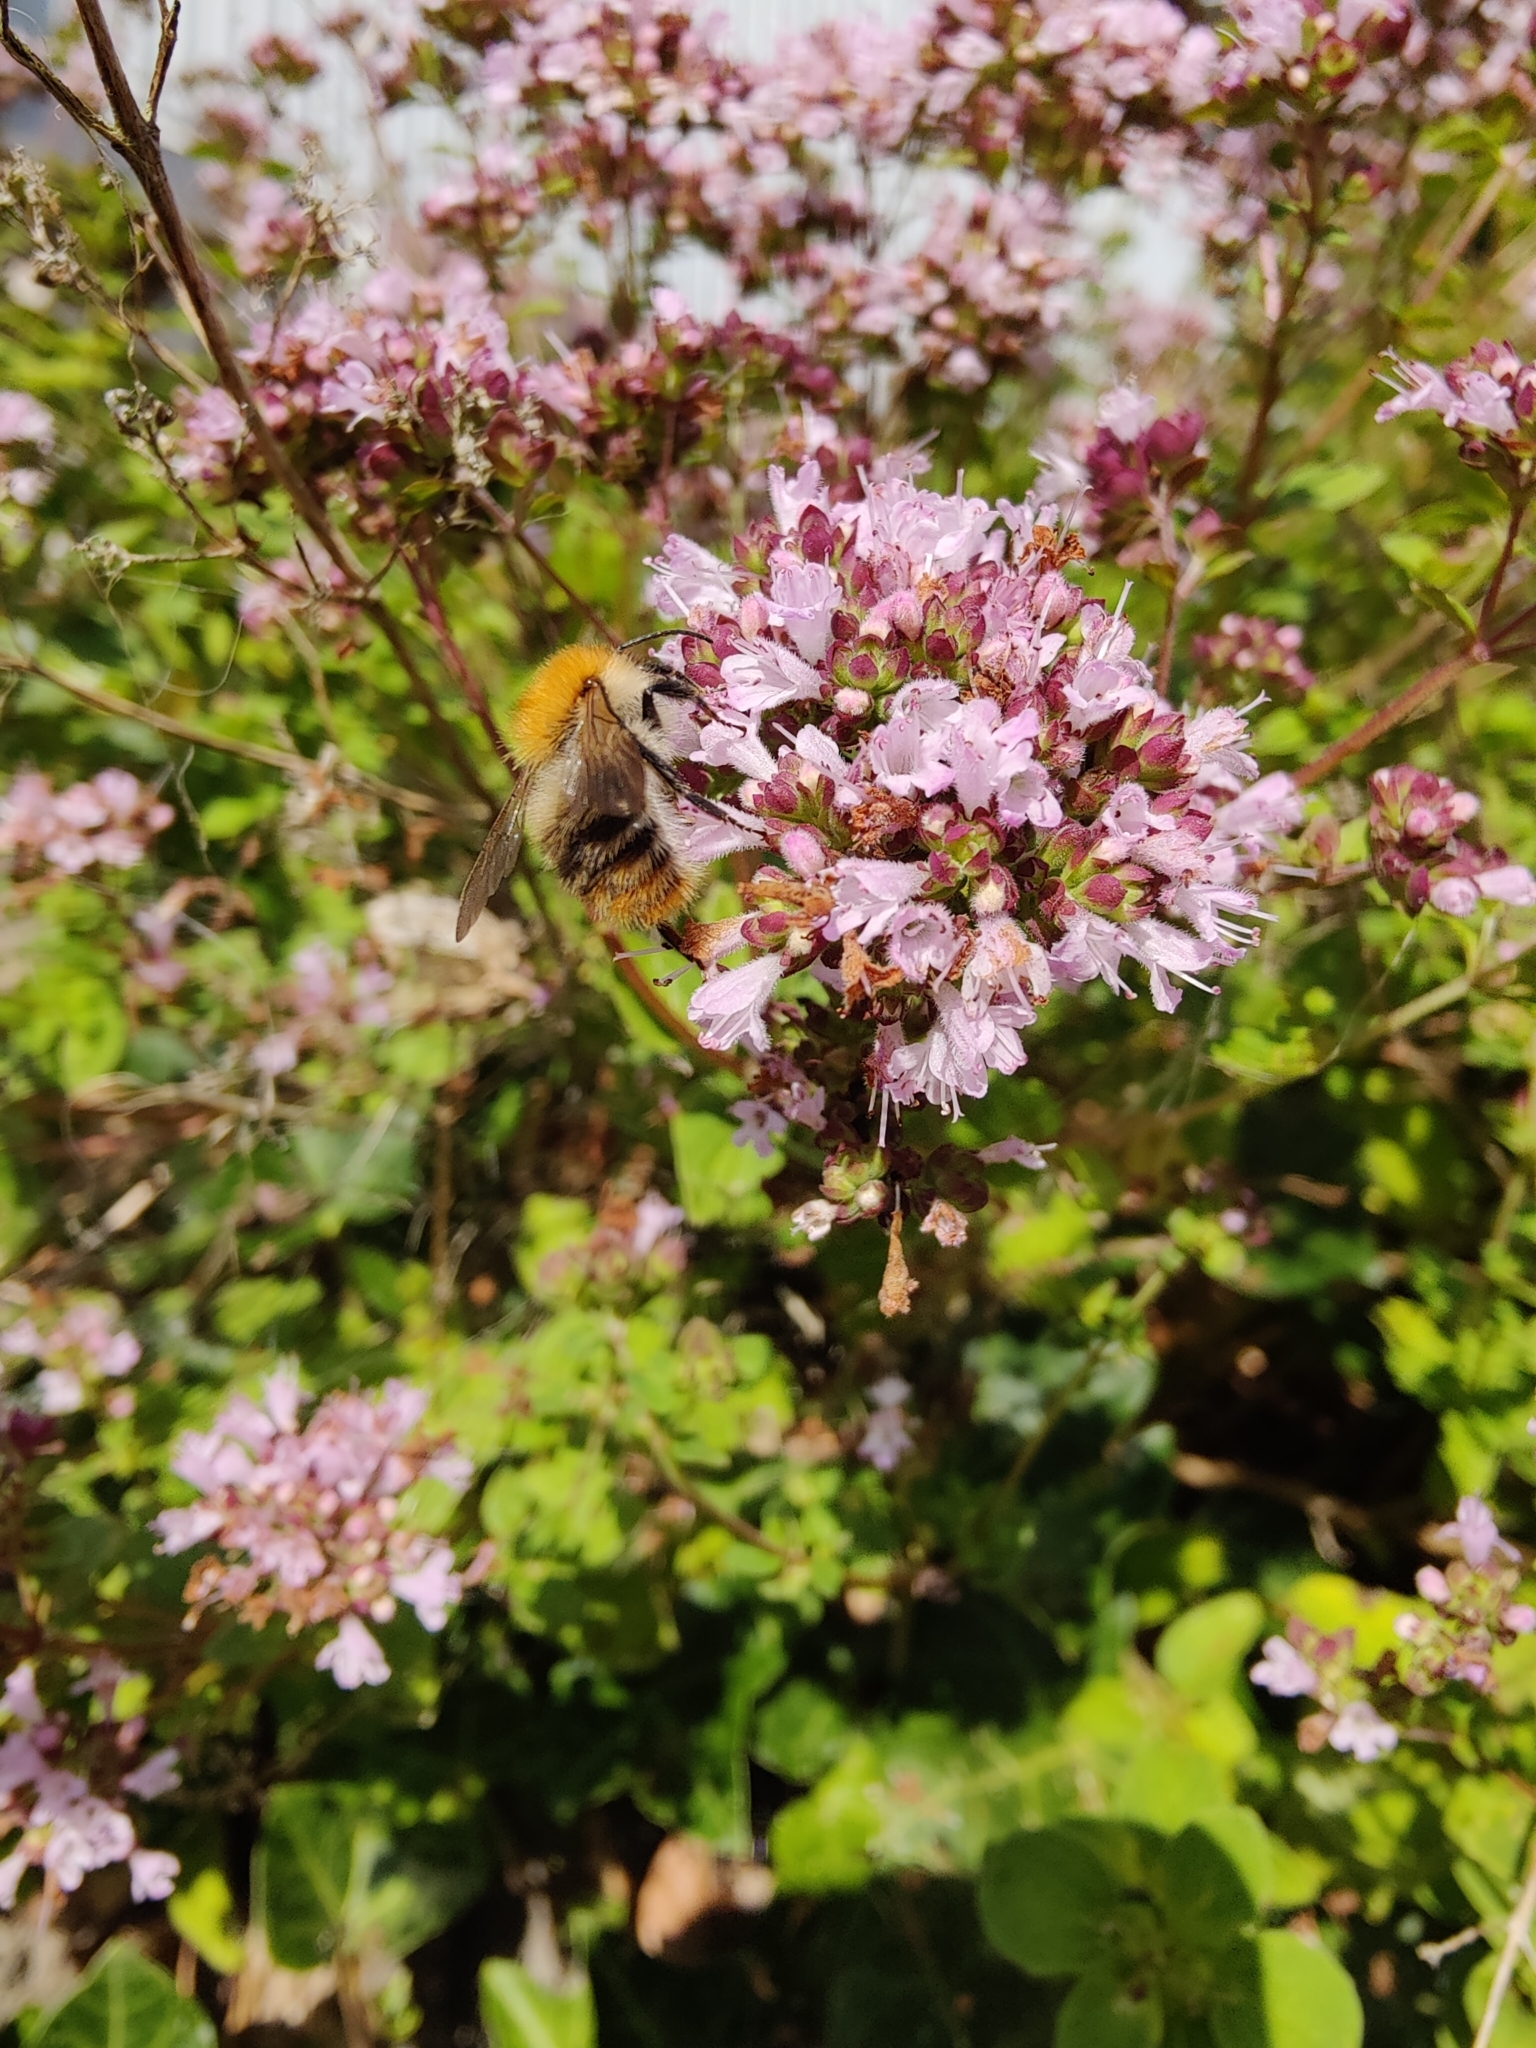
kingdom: Animalia
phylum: Arthropoda
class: Insecta
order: Hymenoptera
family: Apidae
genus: Bombus
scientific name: Bombus pascuorum
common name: Common carder bee
